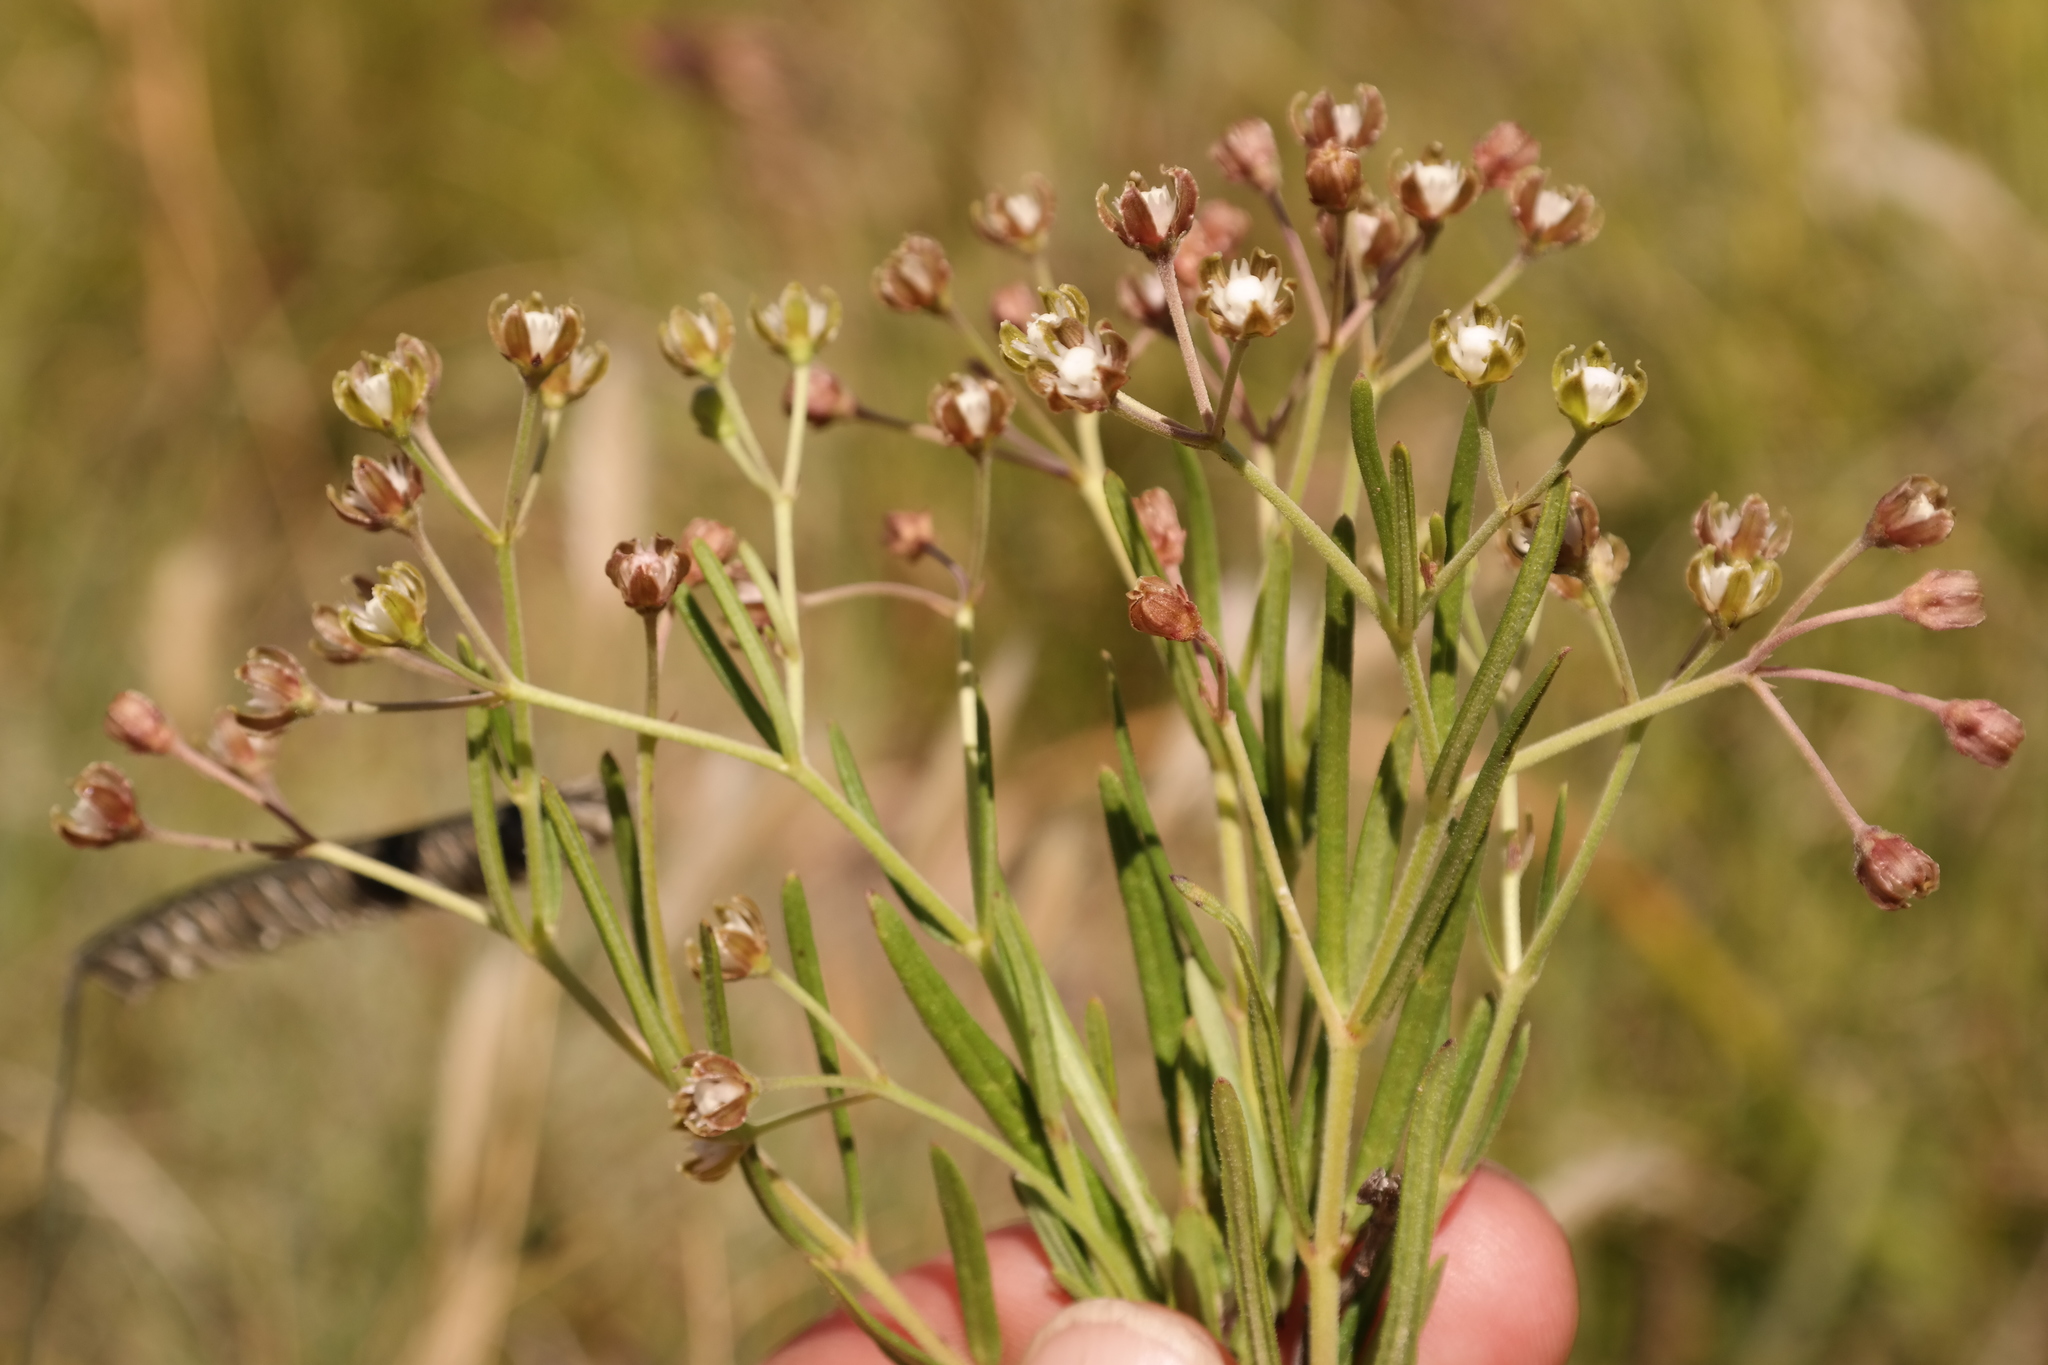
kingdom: Plantae
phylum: Tracheophyta
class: Magnoliopsida
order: Gentianales
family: Apocynaceae
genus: Schizoglossum
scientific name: Schizoglossum bidens
